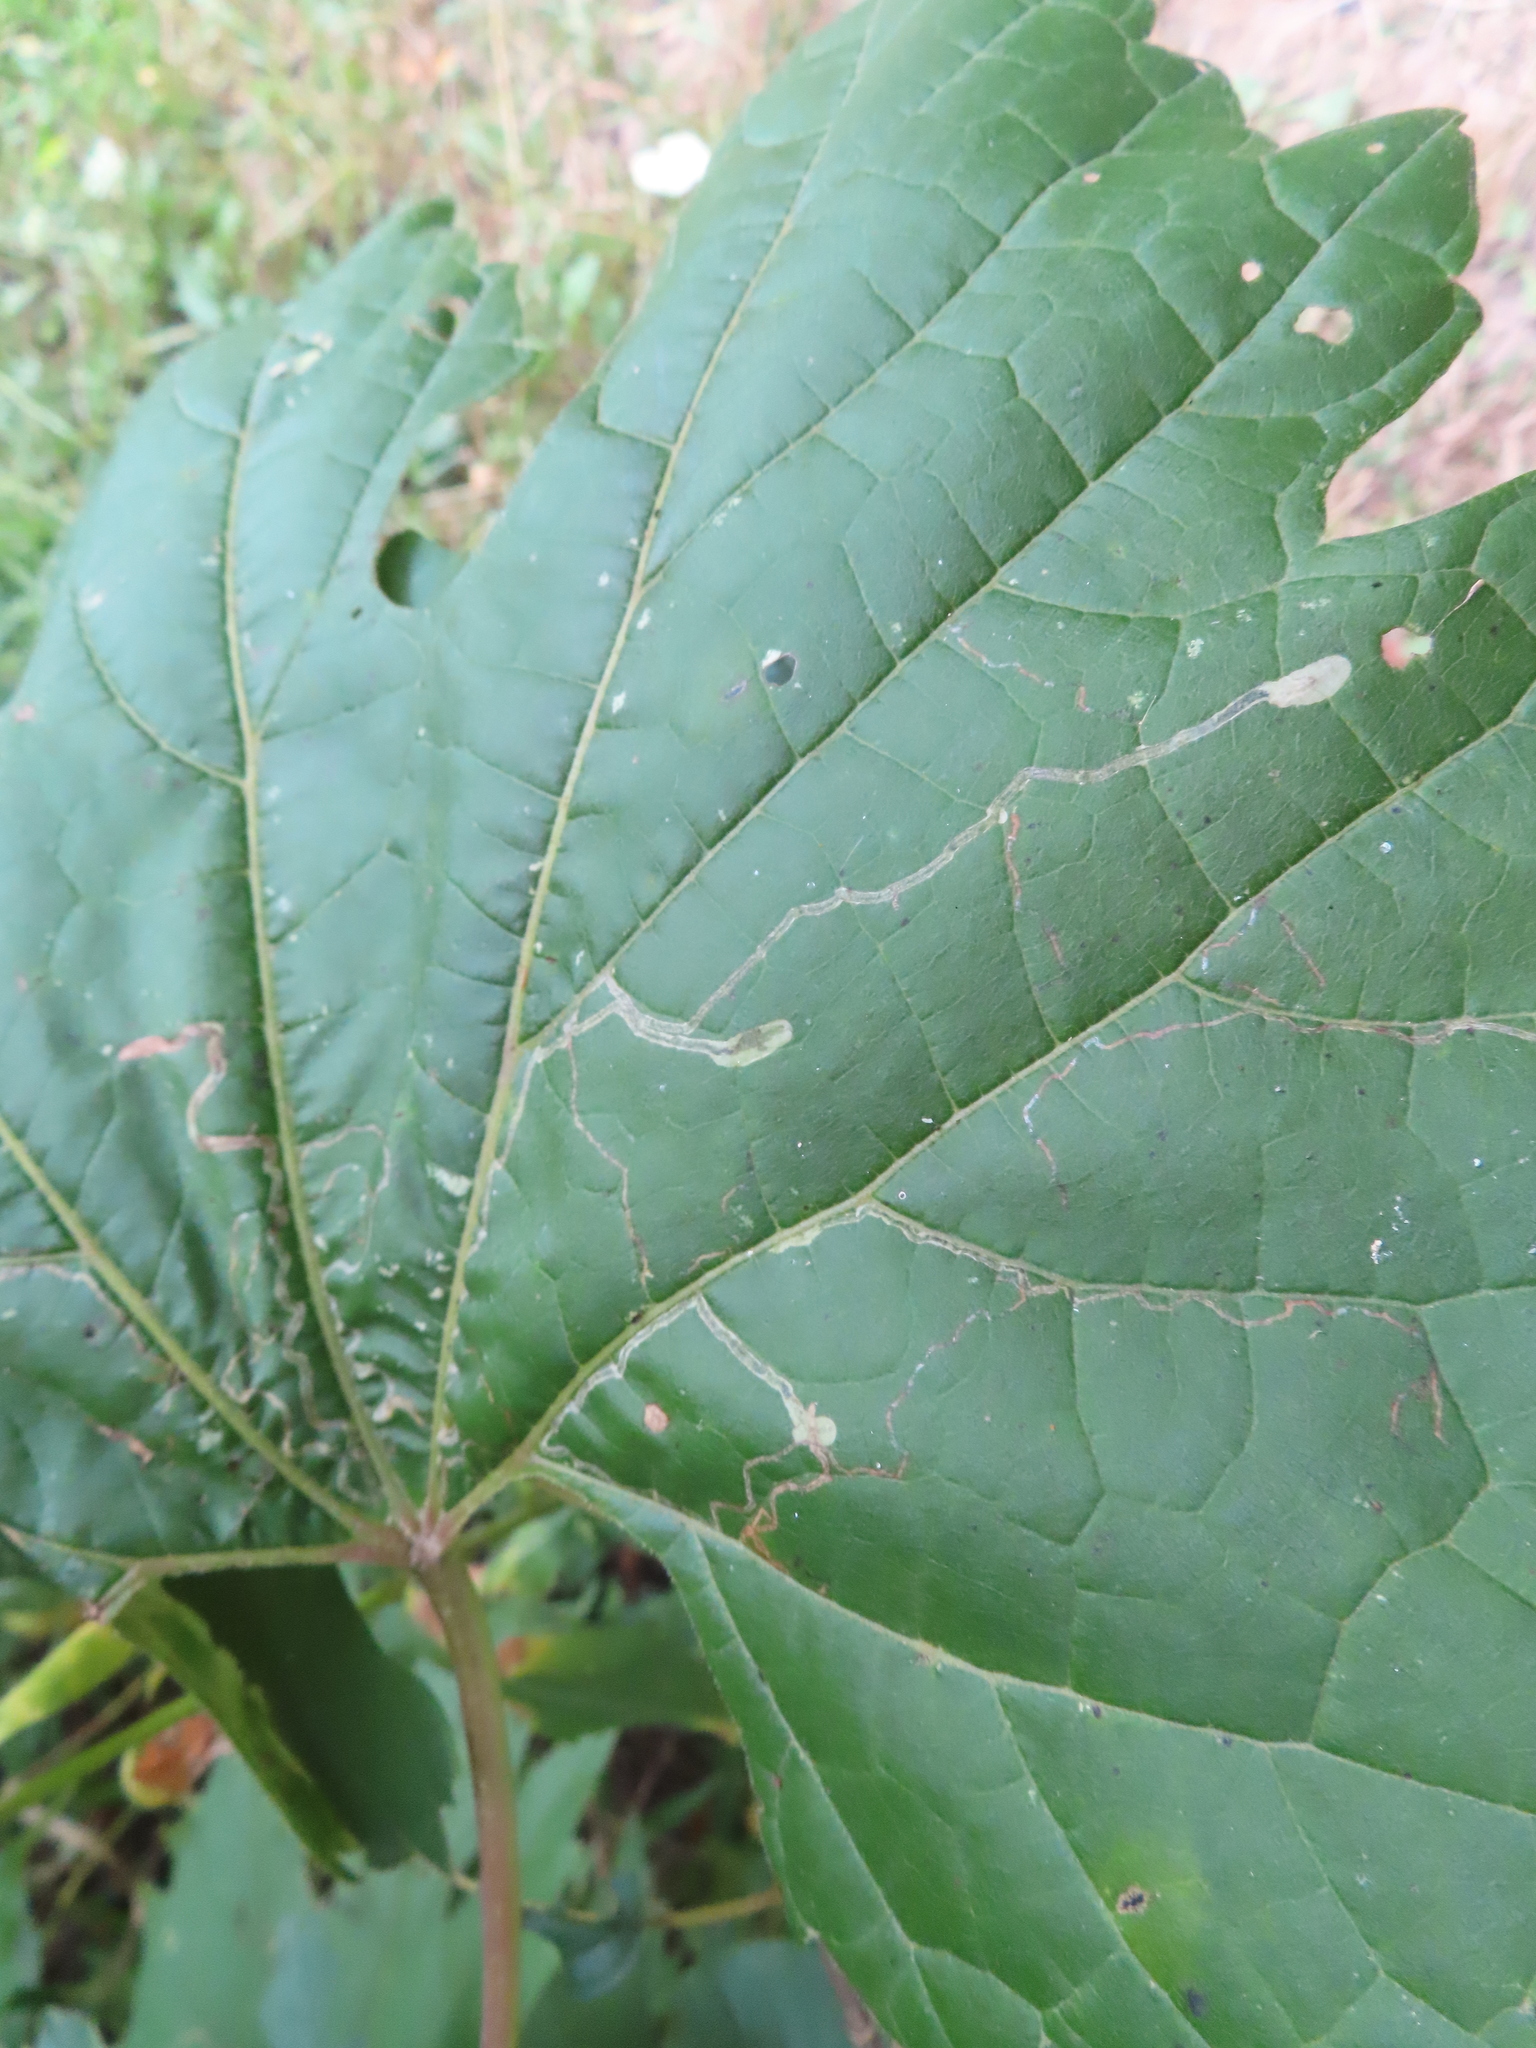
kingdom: Animalia
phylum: Arthropoda
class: Insecta
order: Lepidoptera
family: Gracillariidae
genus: Phyllocnistis
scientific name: Phyllocnistis vitifoliella
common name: Grape leaf-miner moth
